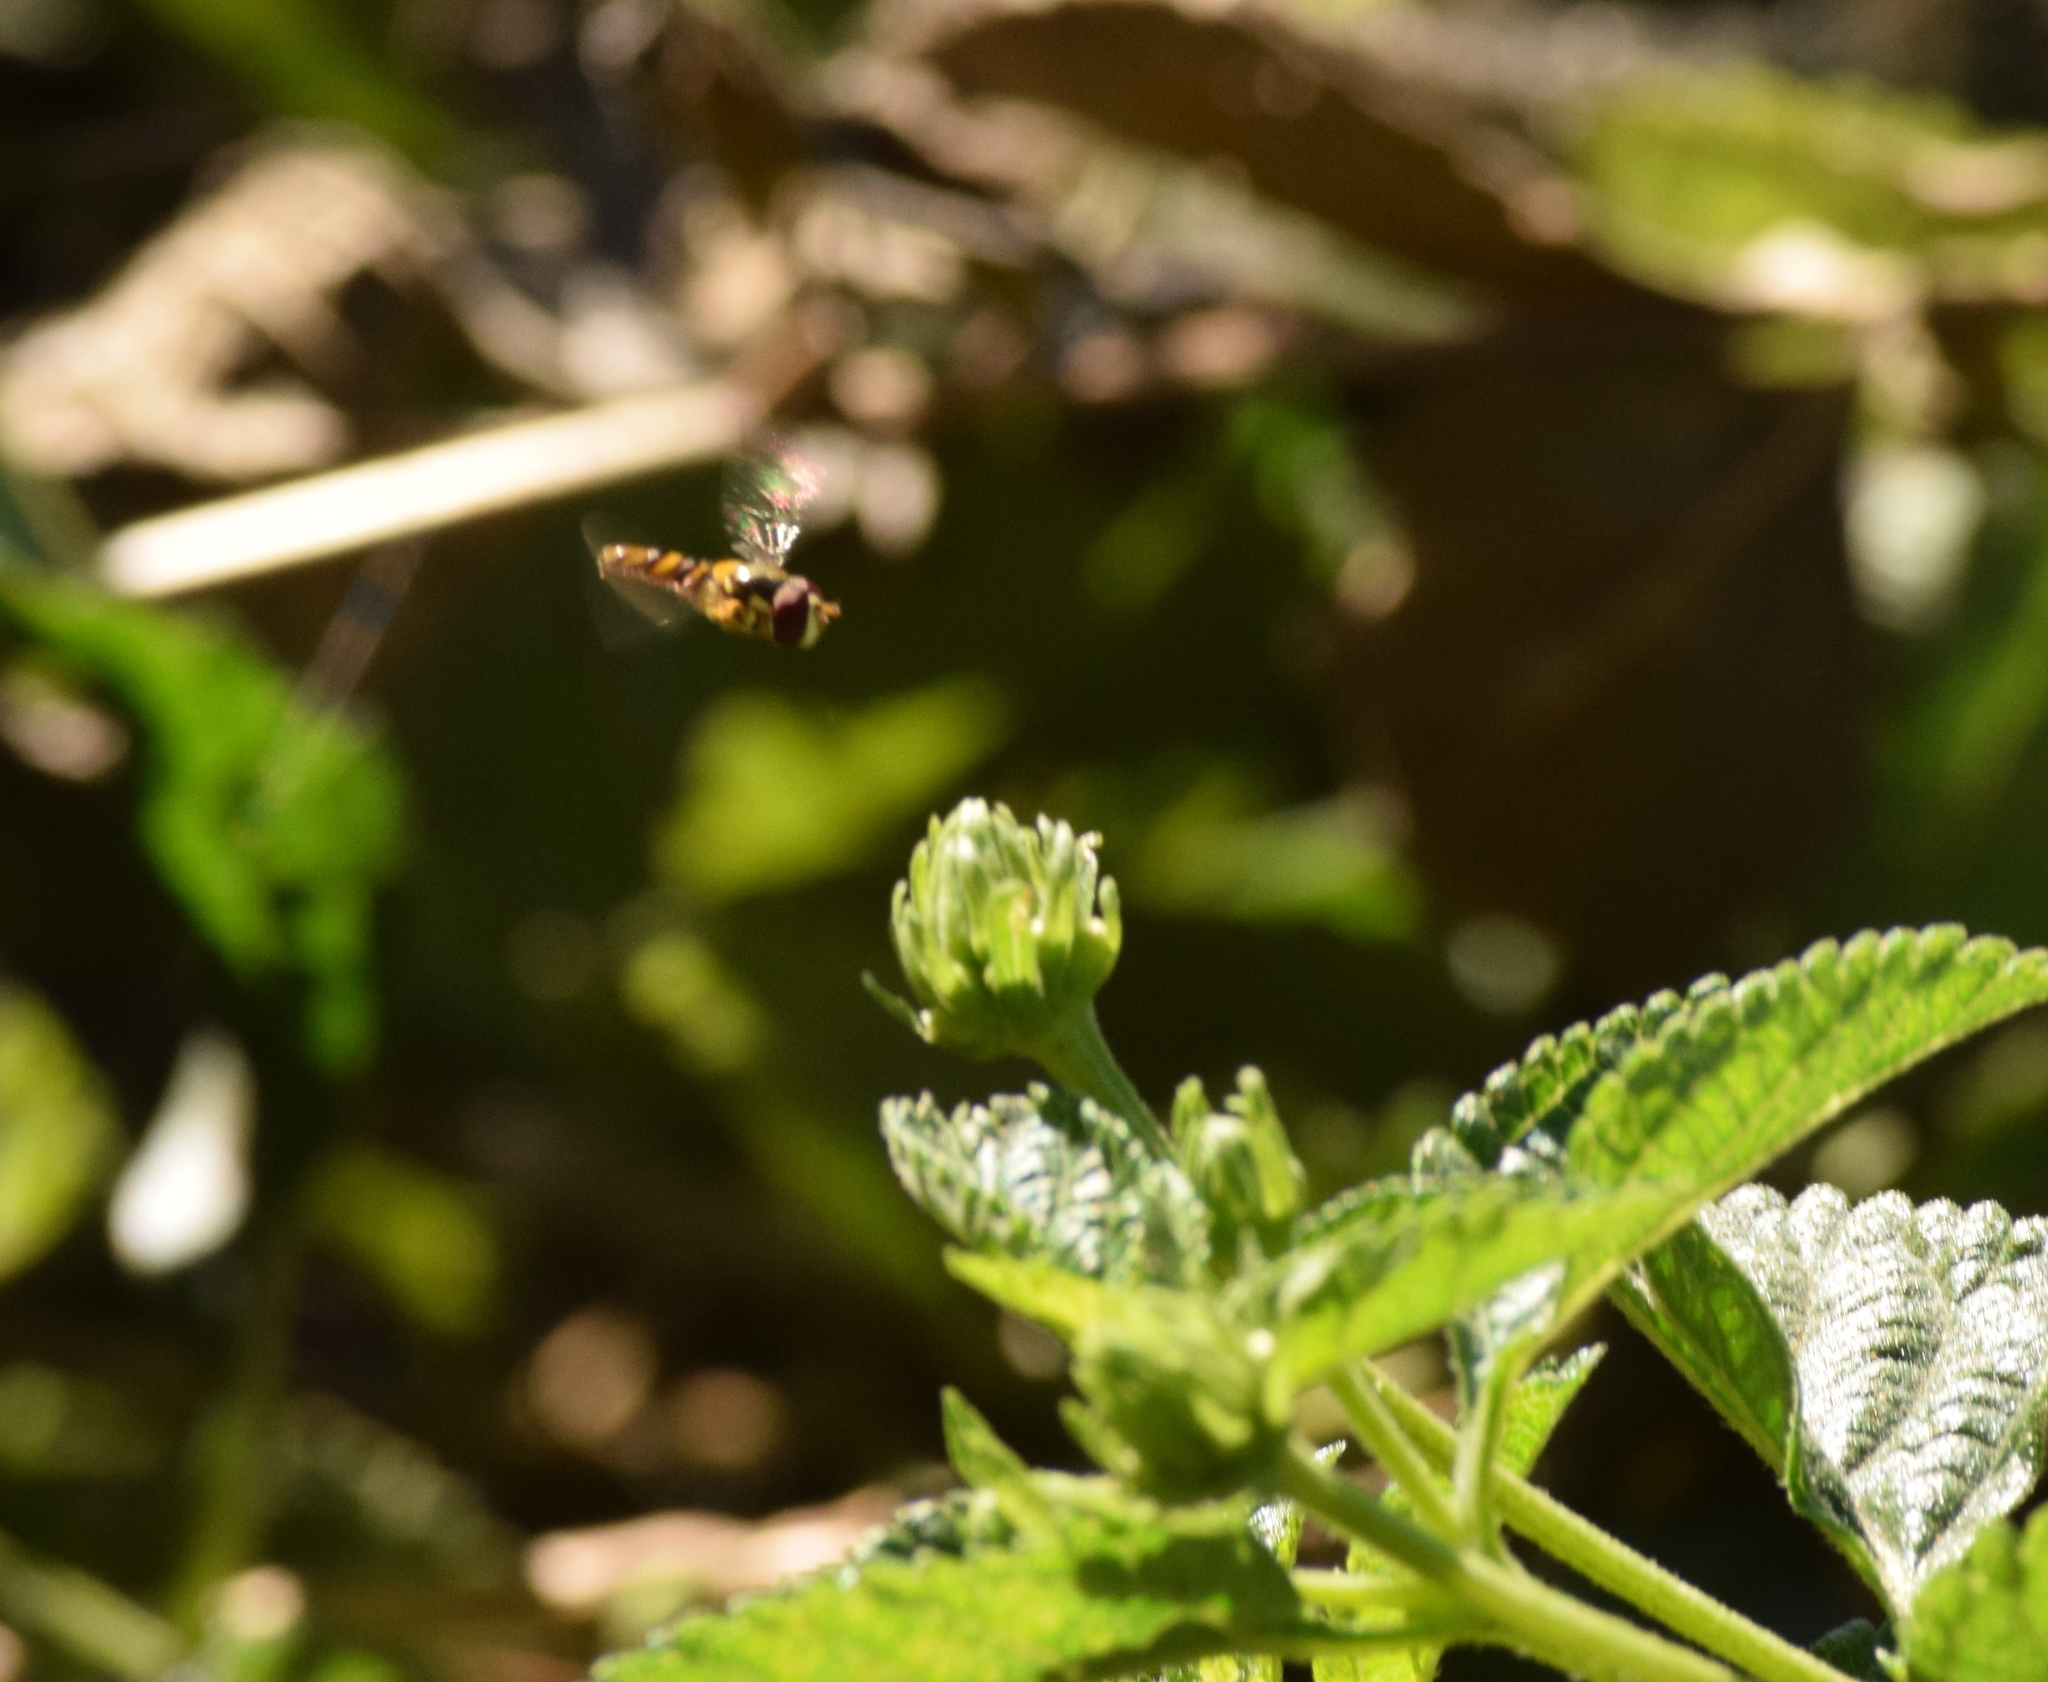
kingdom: Animalia
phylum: Arthropoda
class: Insecta
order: Diptera
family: Syrphidae
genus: Allograpta
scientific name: Allograpta obliqua
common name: Common oblique syrphid
